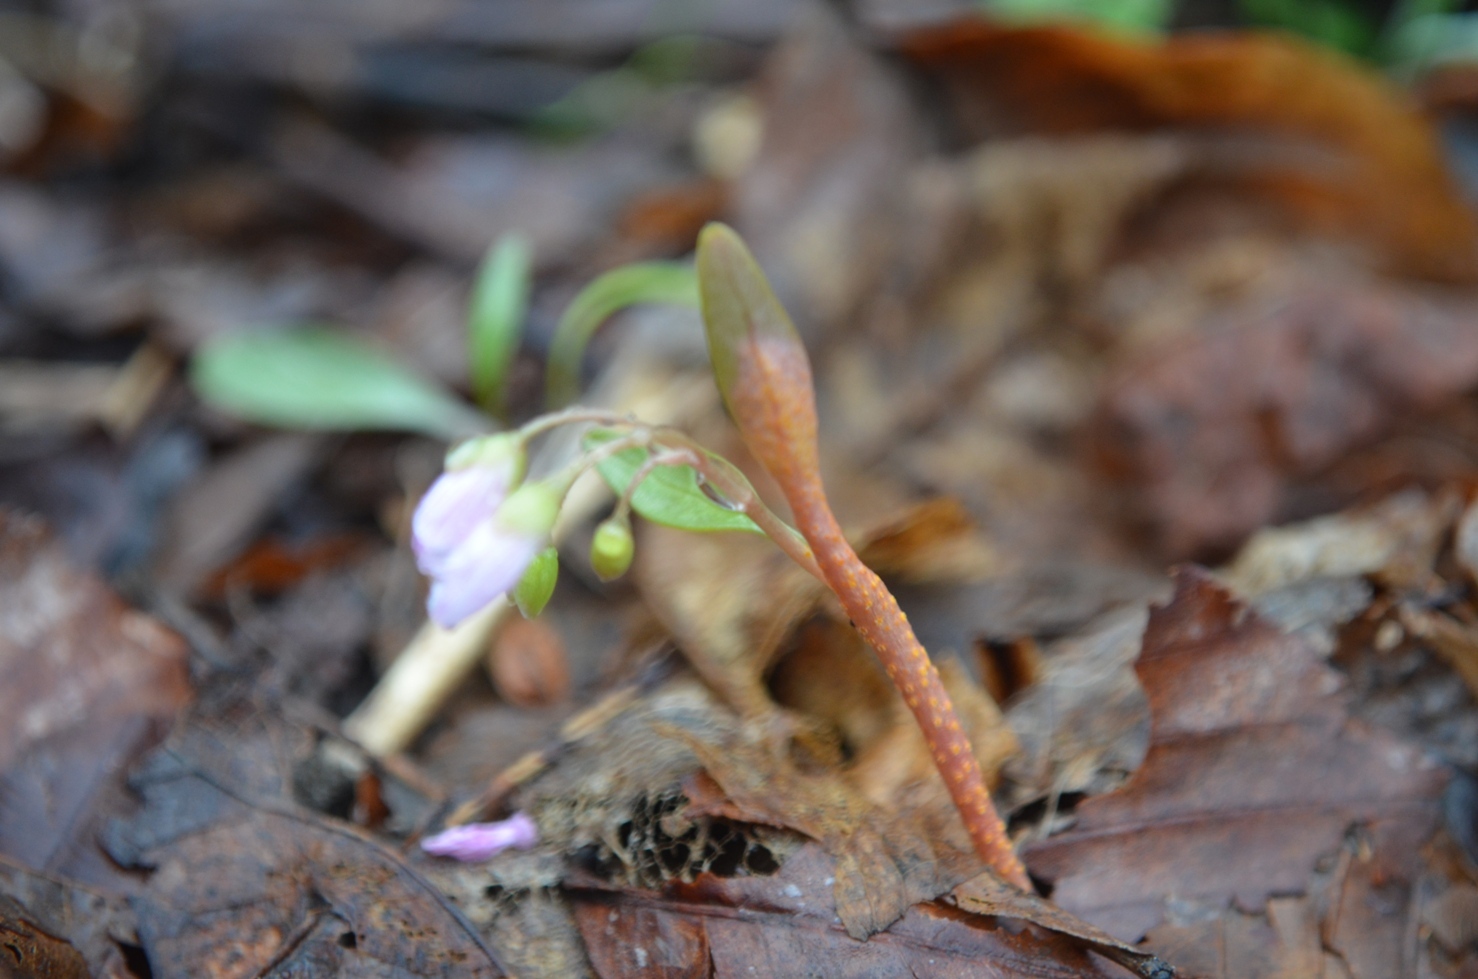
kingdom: Fungi
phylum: Basidiomycota
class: Pucciniomycetes
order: Pucciniales
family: Pucciniaceae
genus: Puccinia
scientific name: Puccinia mariae-wilsoniae
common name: Spring beauty rust
